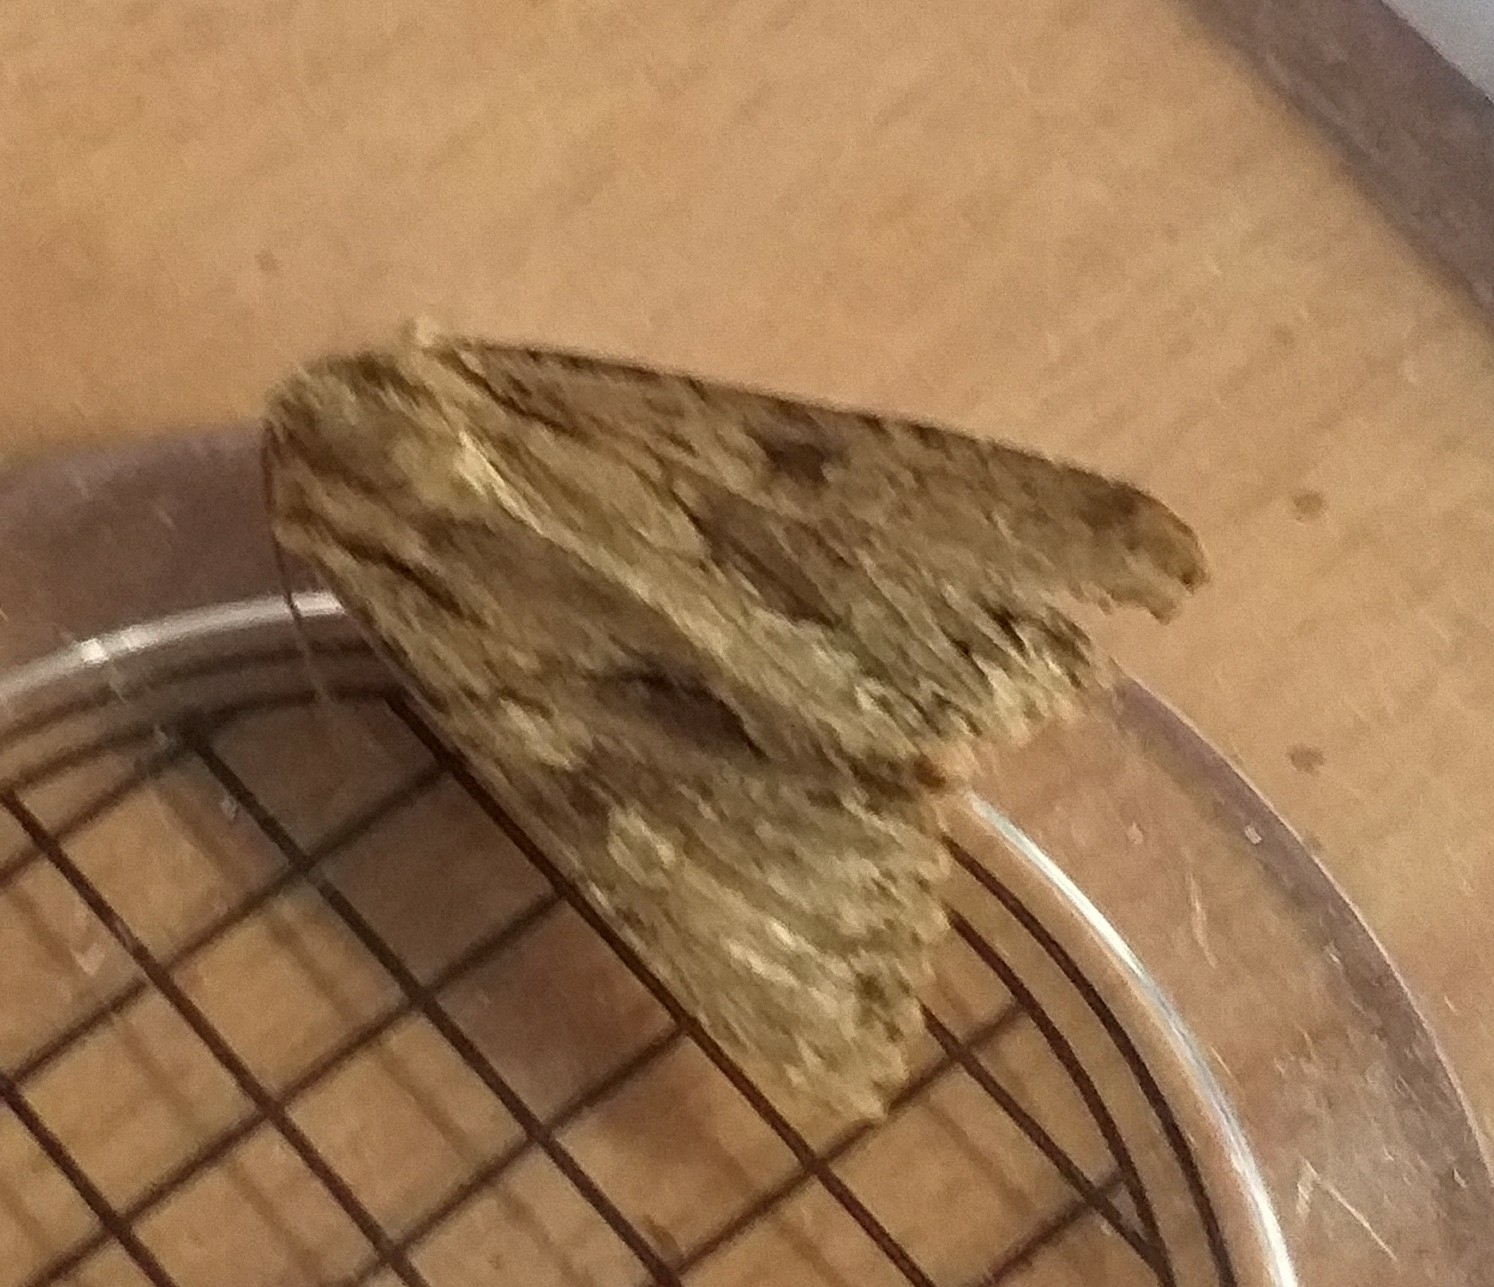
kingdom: Animalia
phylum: Arthropoda
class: Insecta
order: Lepidoptera
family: Noctuidae
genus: Apamea
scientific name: Apamea monoglypha
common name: Dark arches
